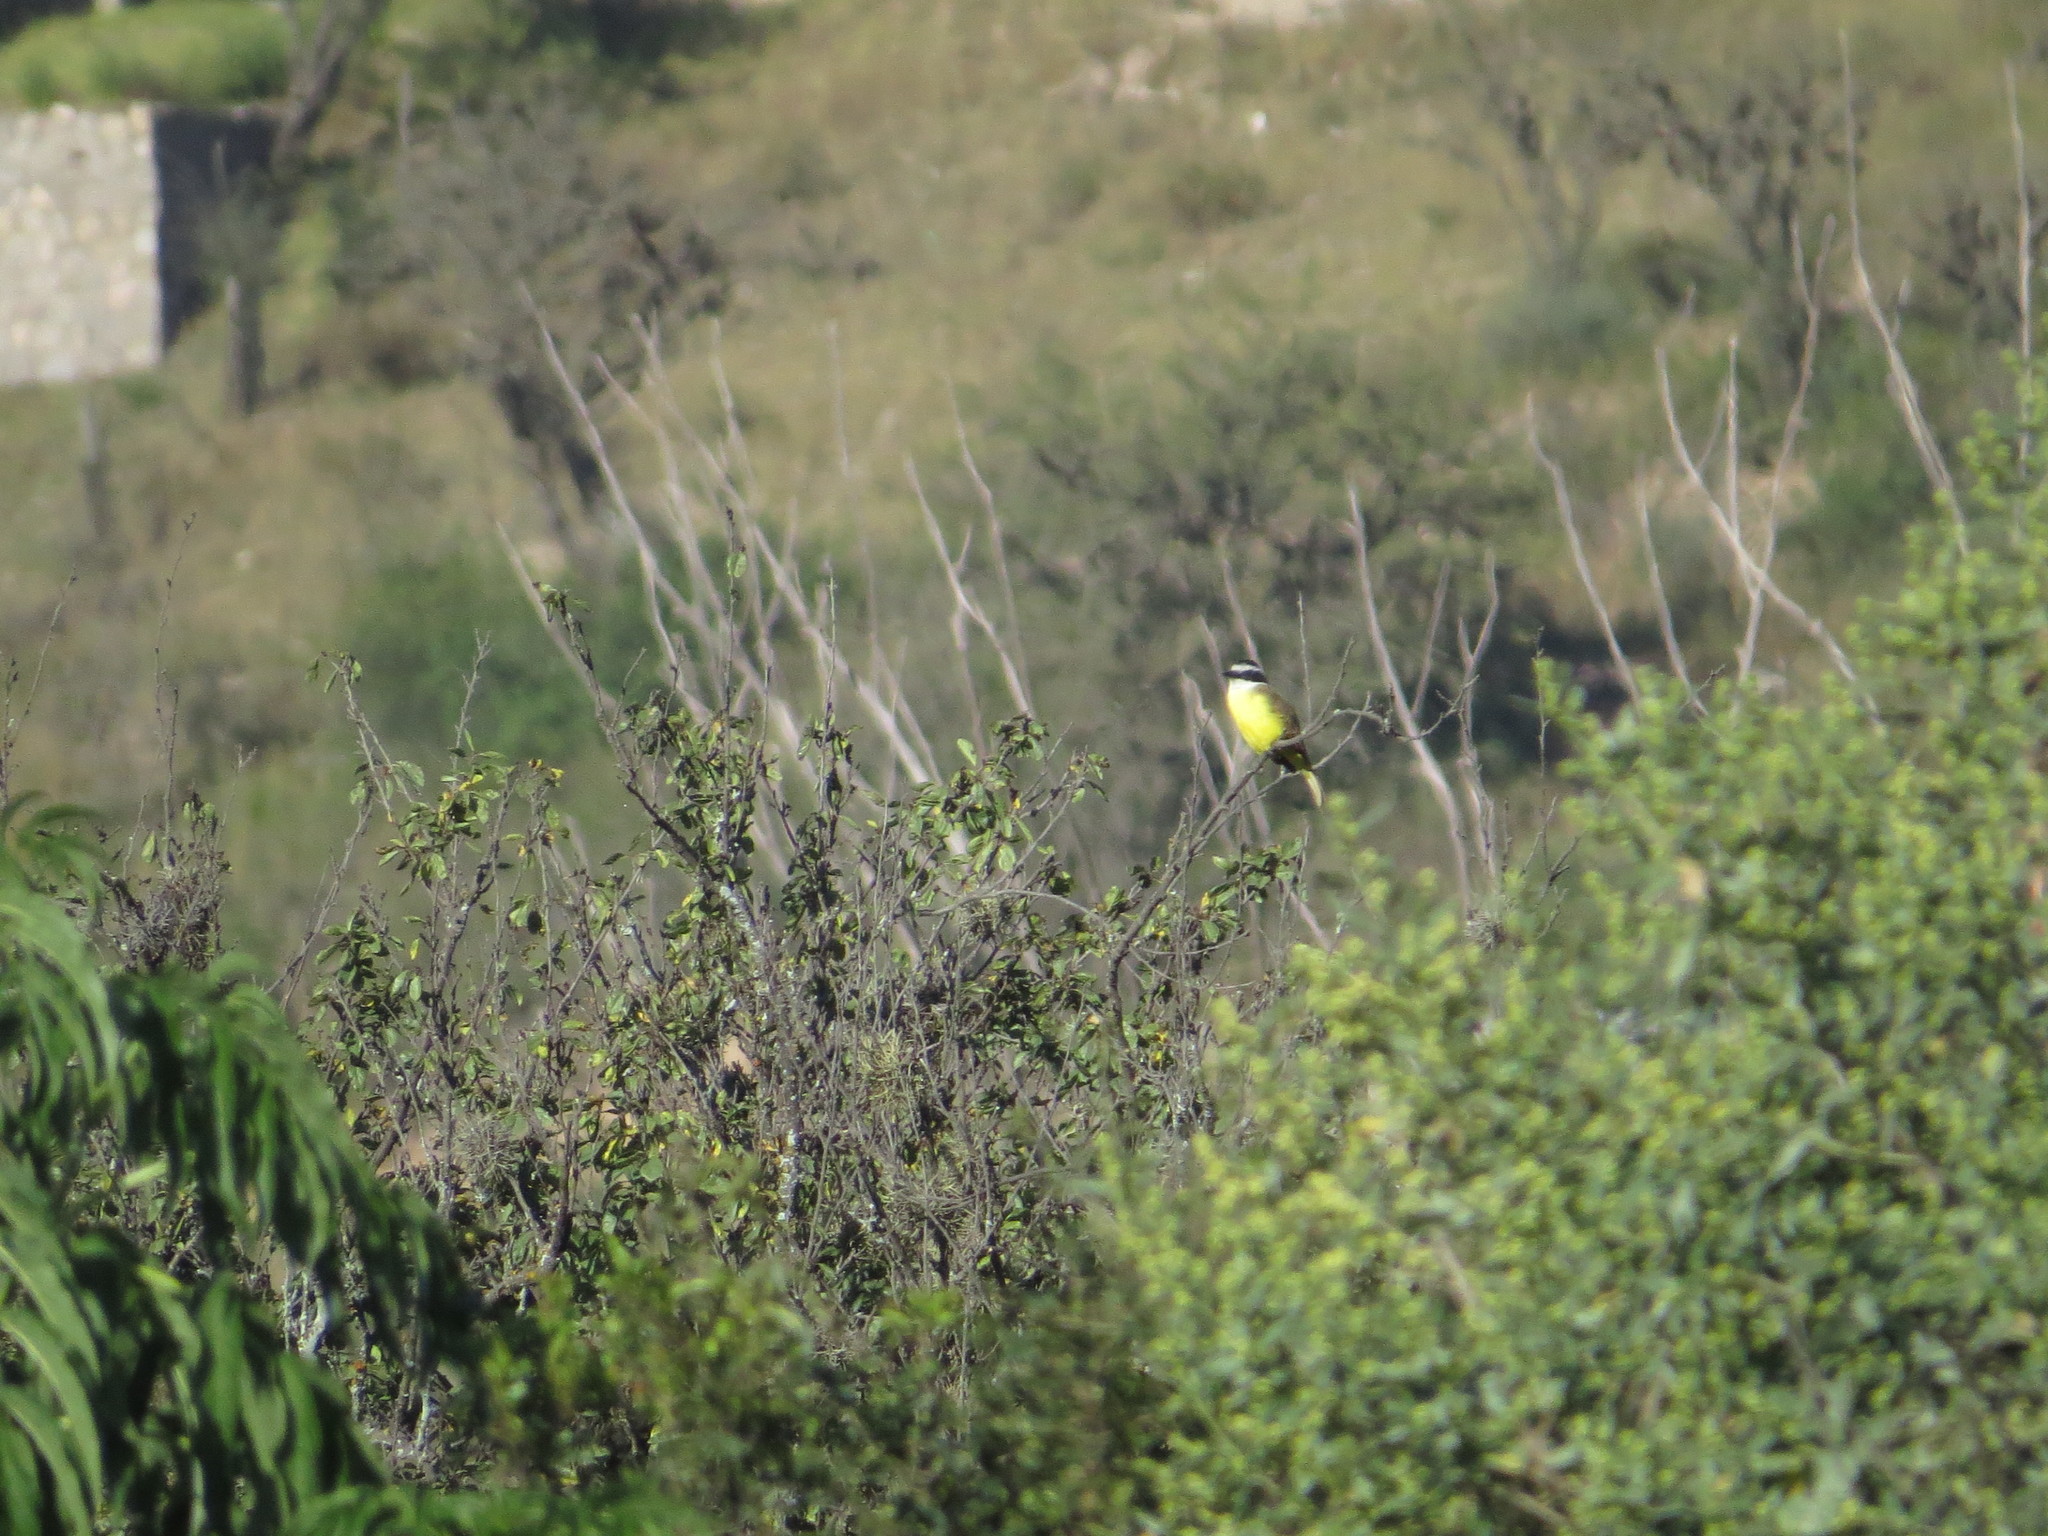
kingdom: Animalia
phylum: Chordata
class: Aves
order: Passeriformes
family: Tyrannidae
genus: Pitangus
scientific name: Pitangus sulphuratus
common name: Great kiskadee
